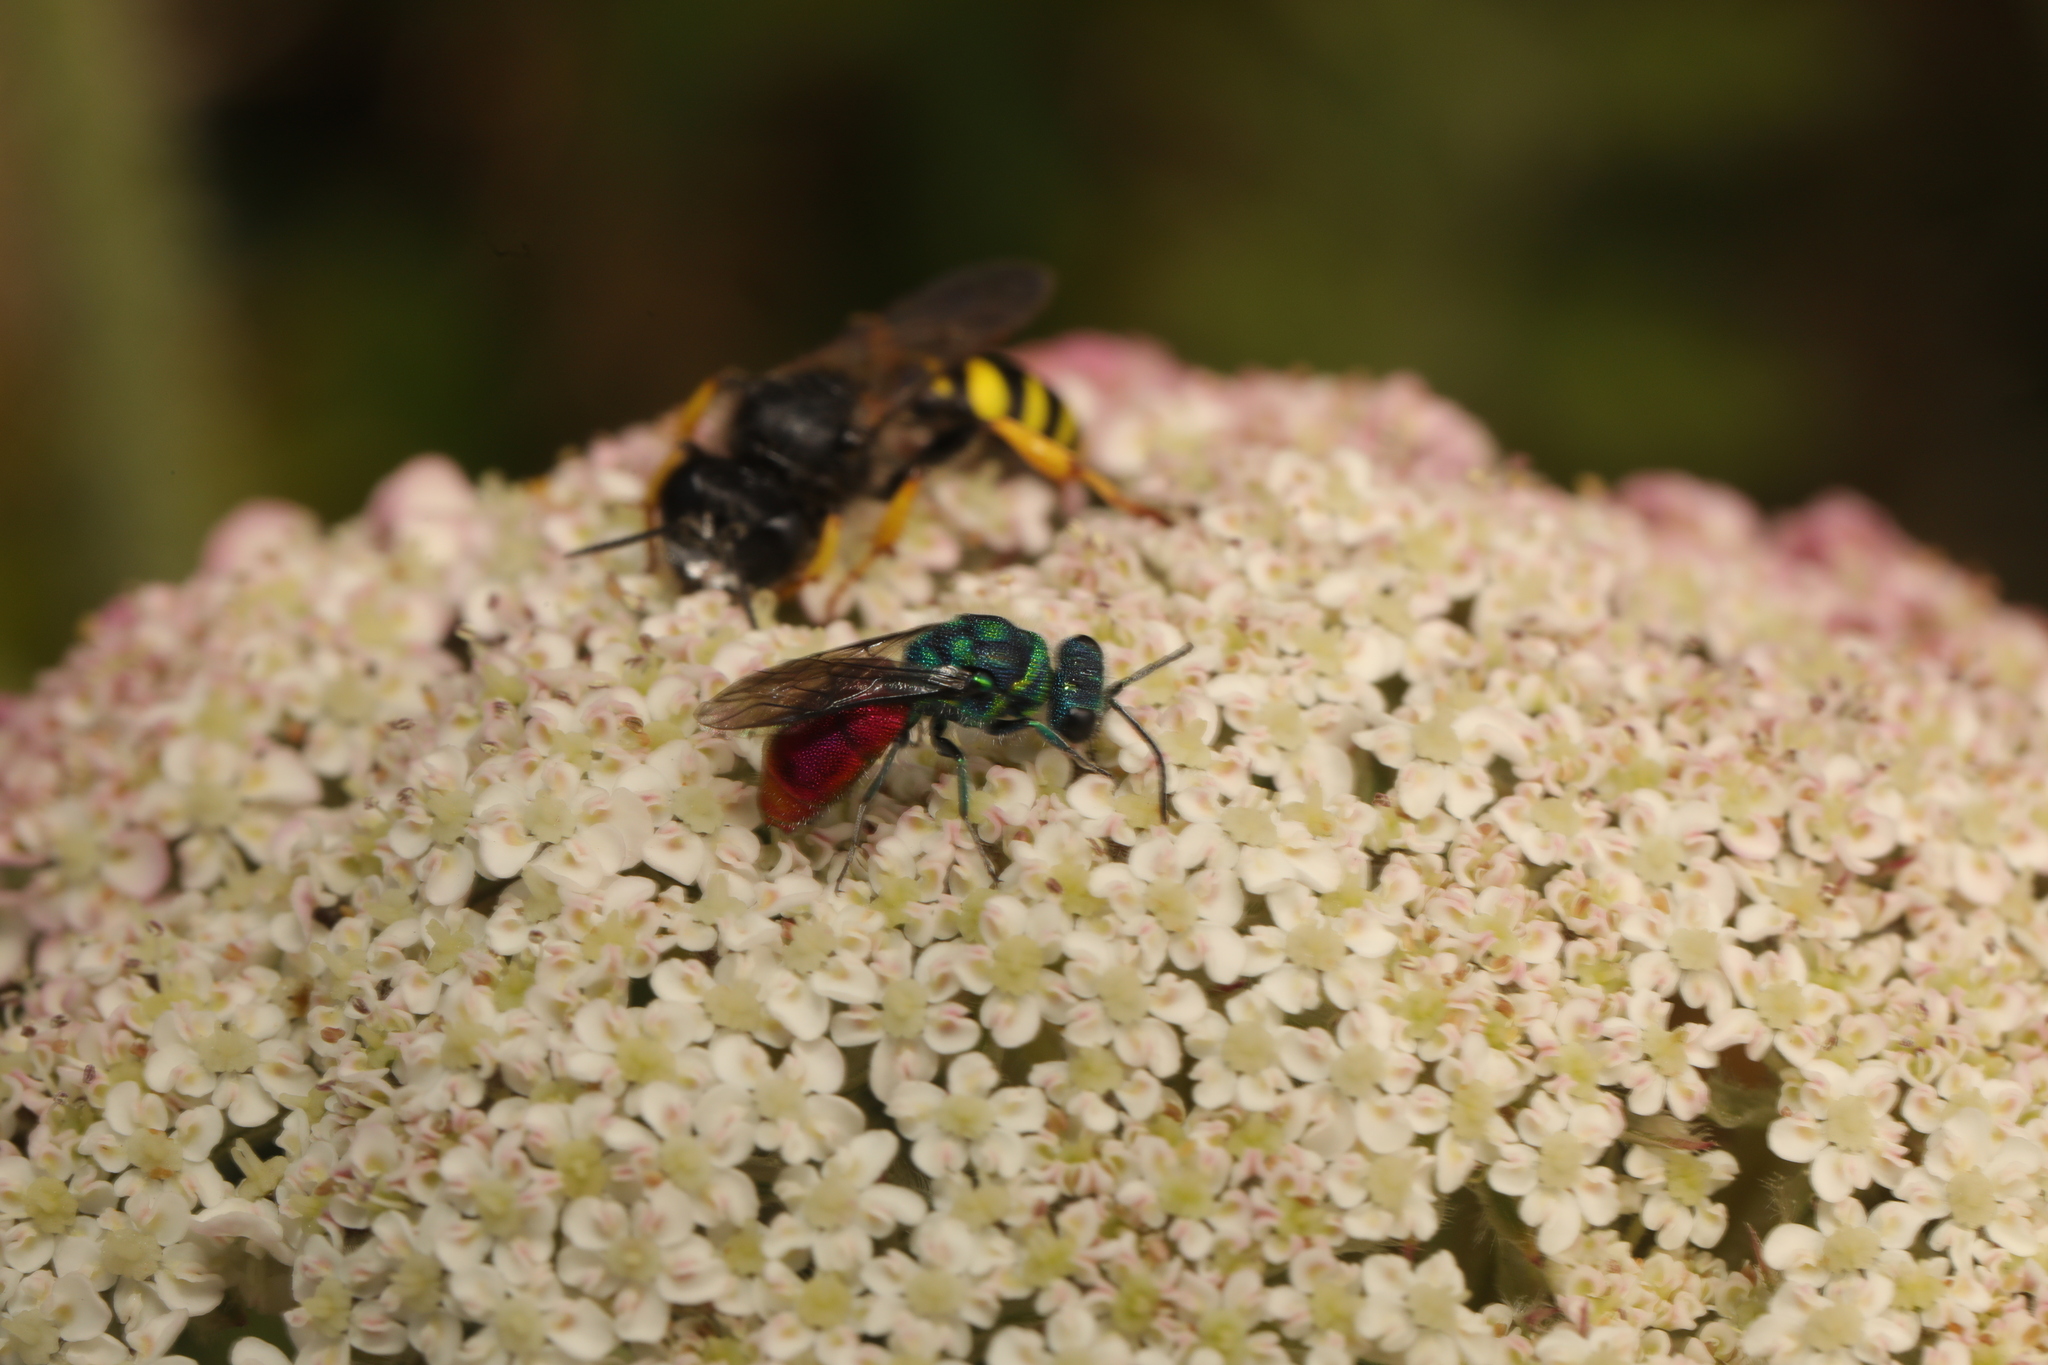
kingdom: Animalia
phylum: Arthropoda
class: Insecta
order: Hymenoptera
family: Chrysididae
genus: Chrysis
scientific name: Chrysis
